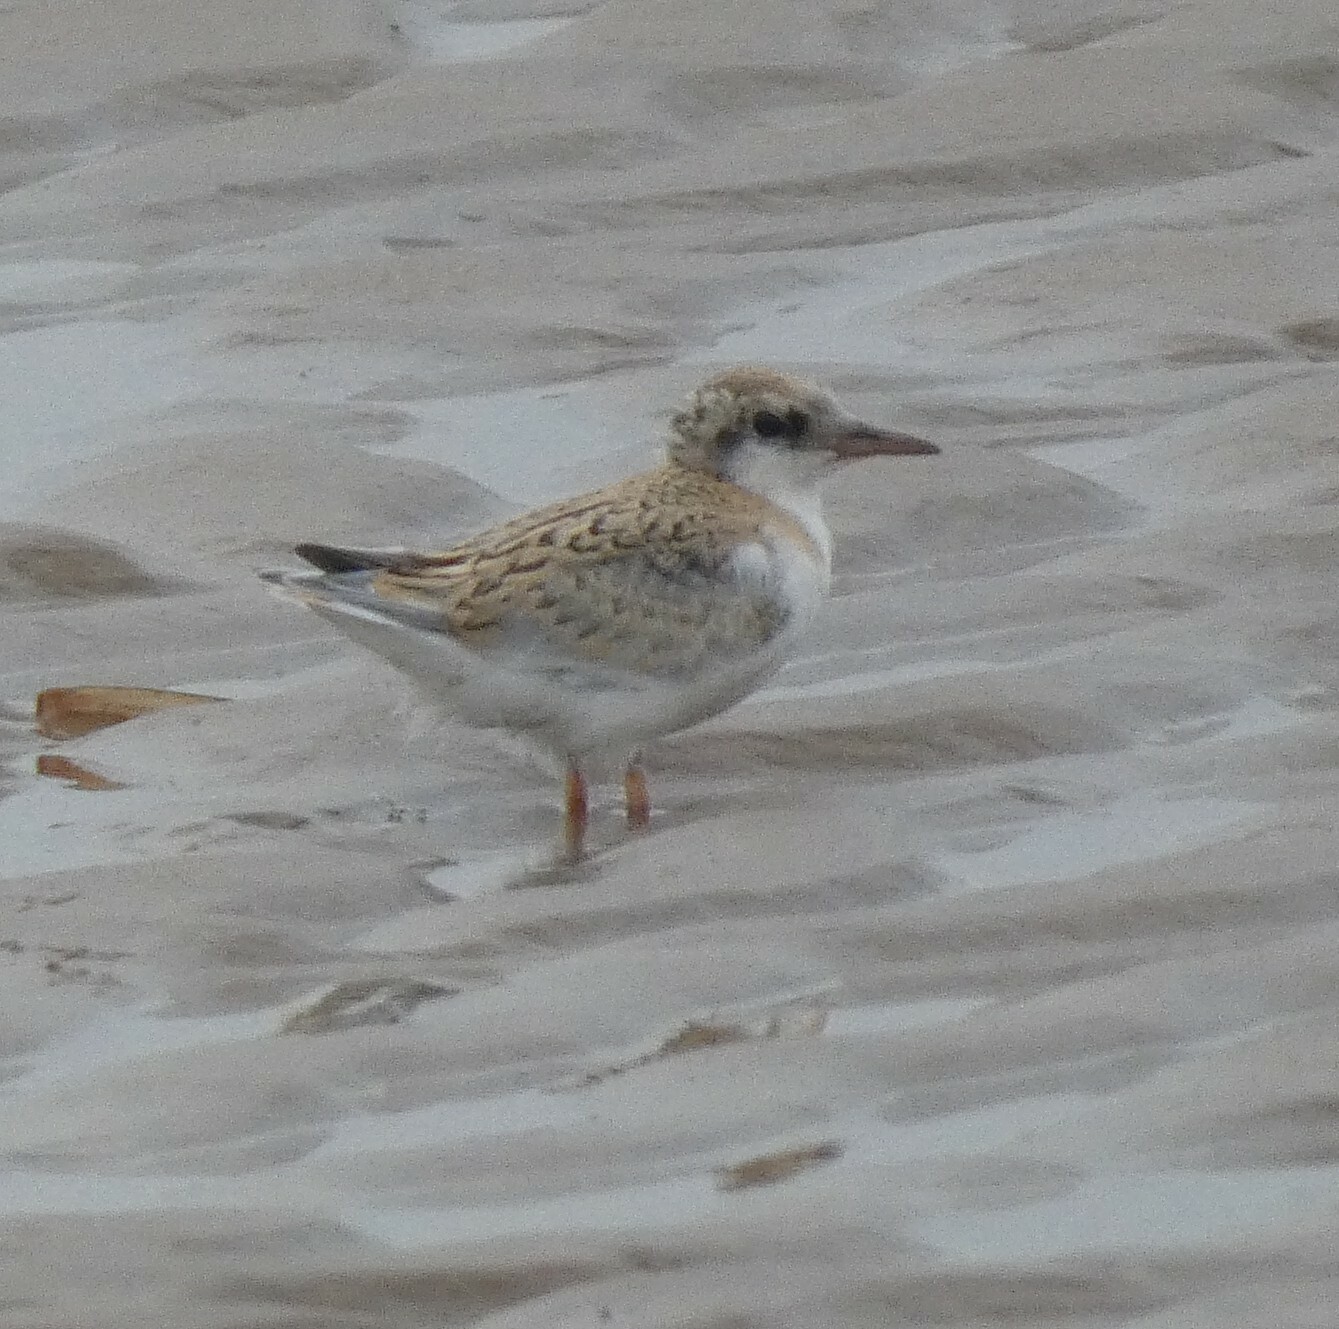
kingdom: Animalia
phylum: Chordata
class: Aves
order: Charadriiformes
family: Laridae
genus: Sternula
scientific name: Sternula albifrons
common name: Little tern
